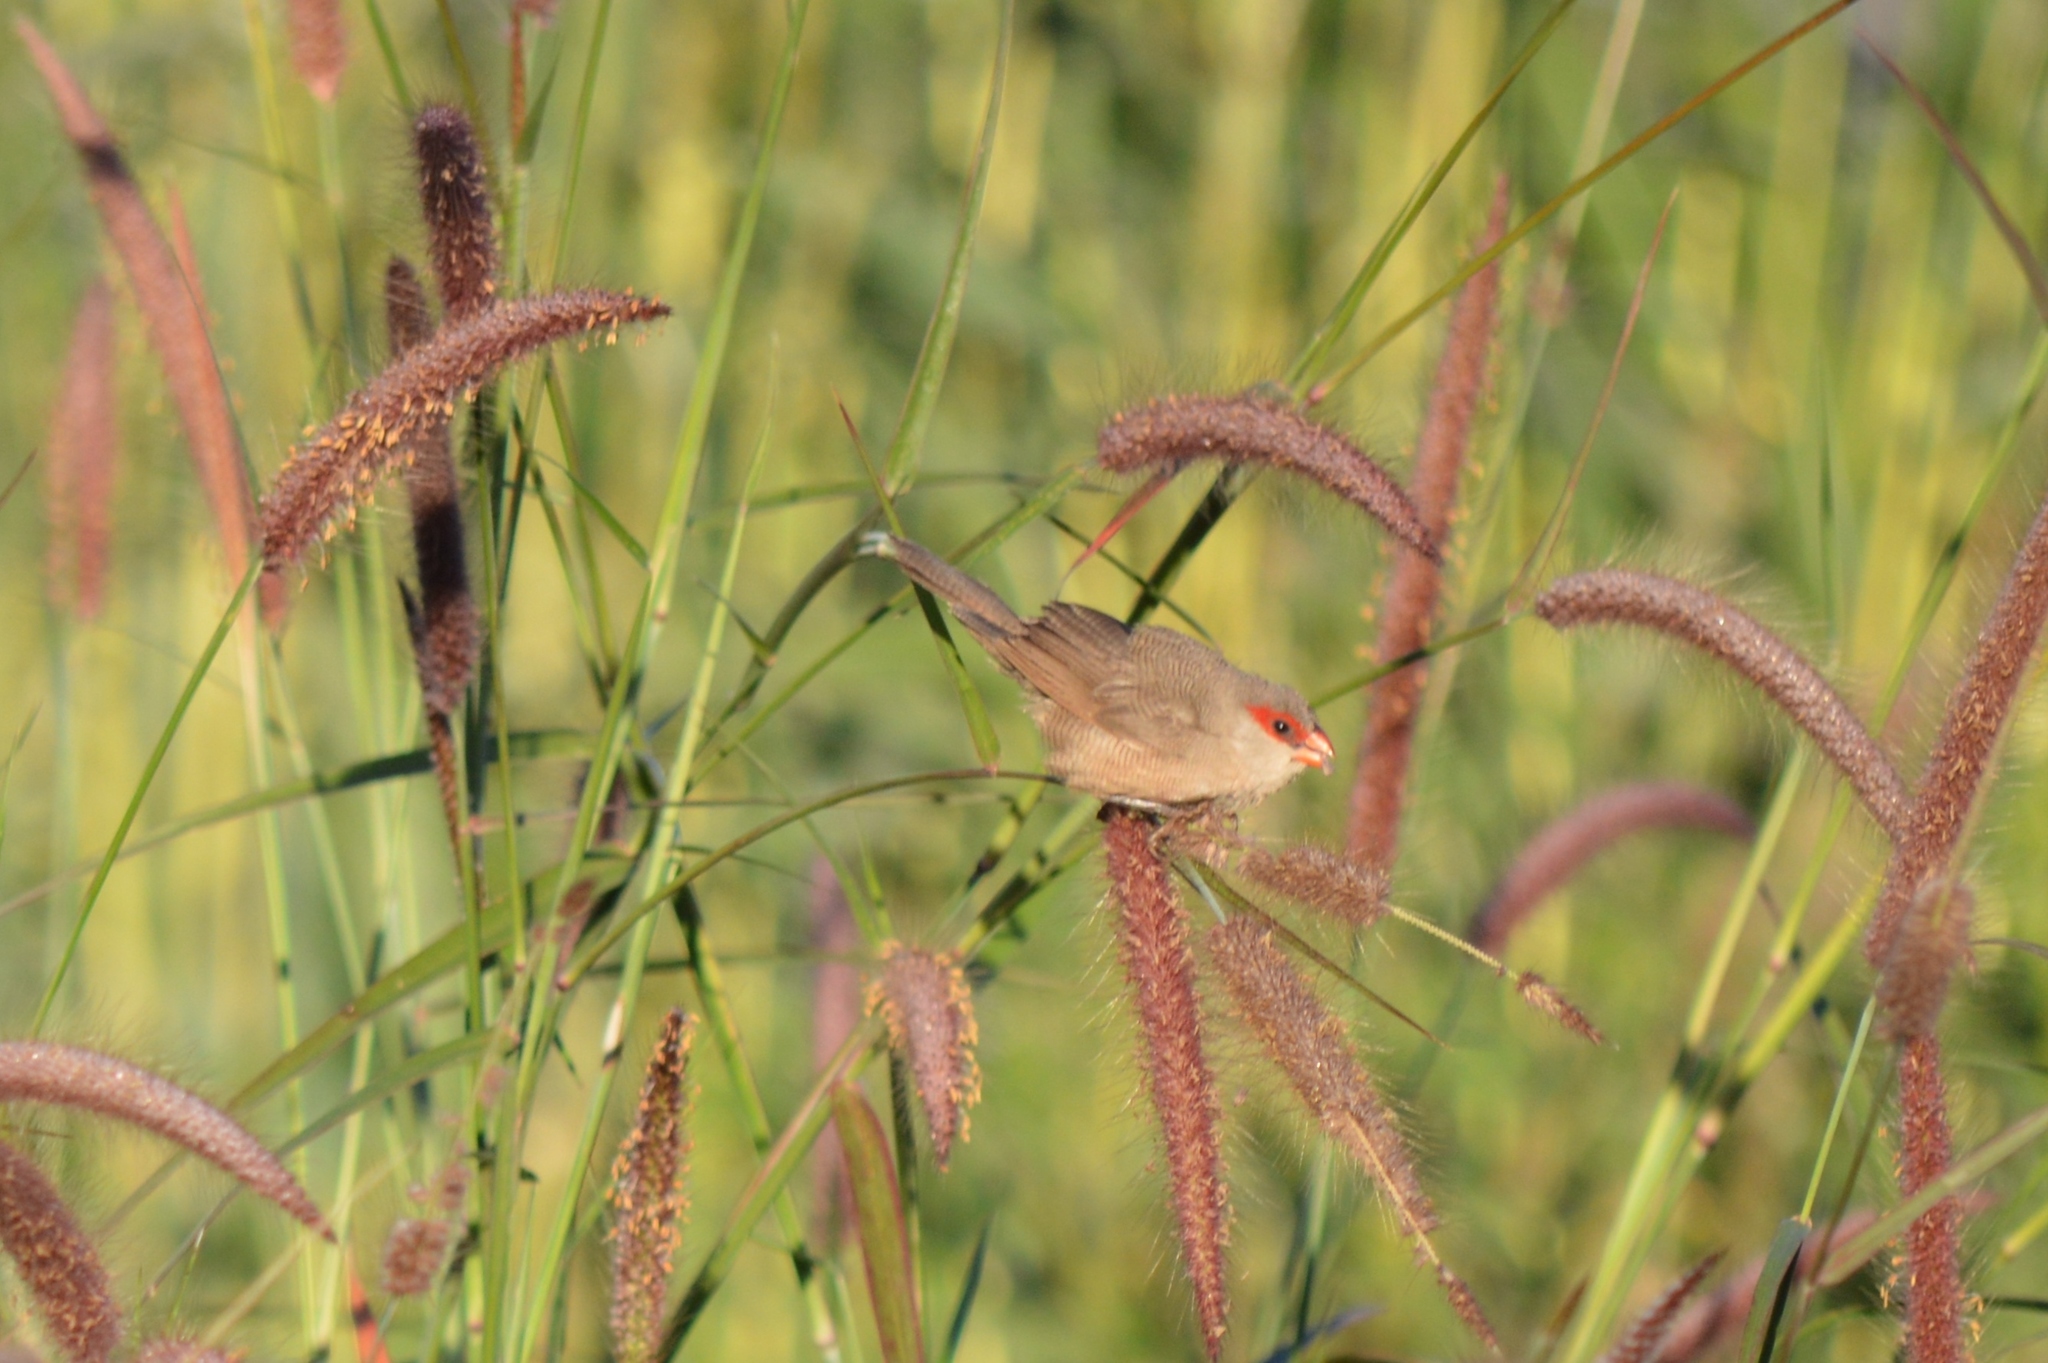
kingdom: Animalia
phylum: Chordata
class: Aves
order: Passeriformes
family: Estrildidae
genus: Estrilda
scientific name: Estrilda astrild
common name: Common waxbill
